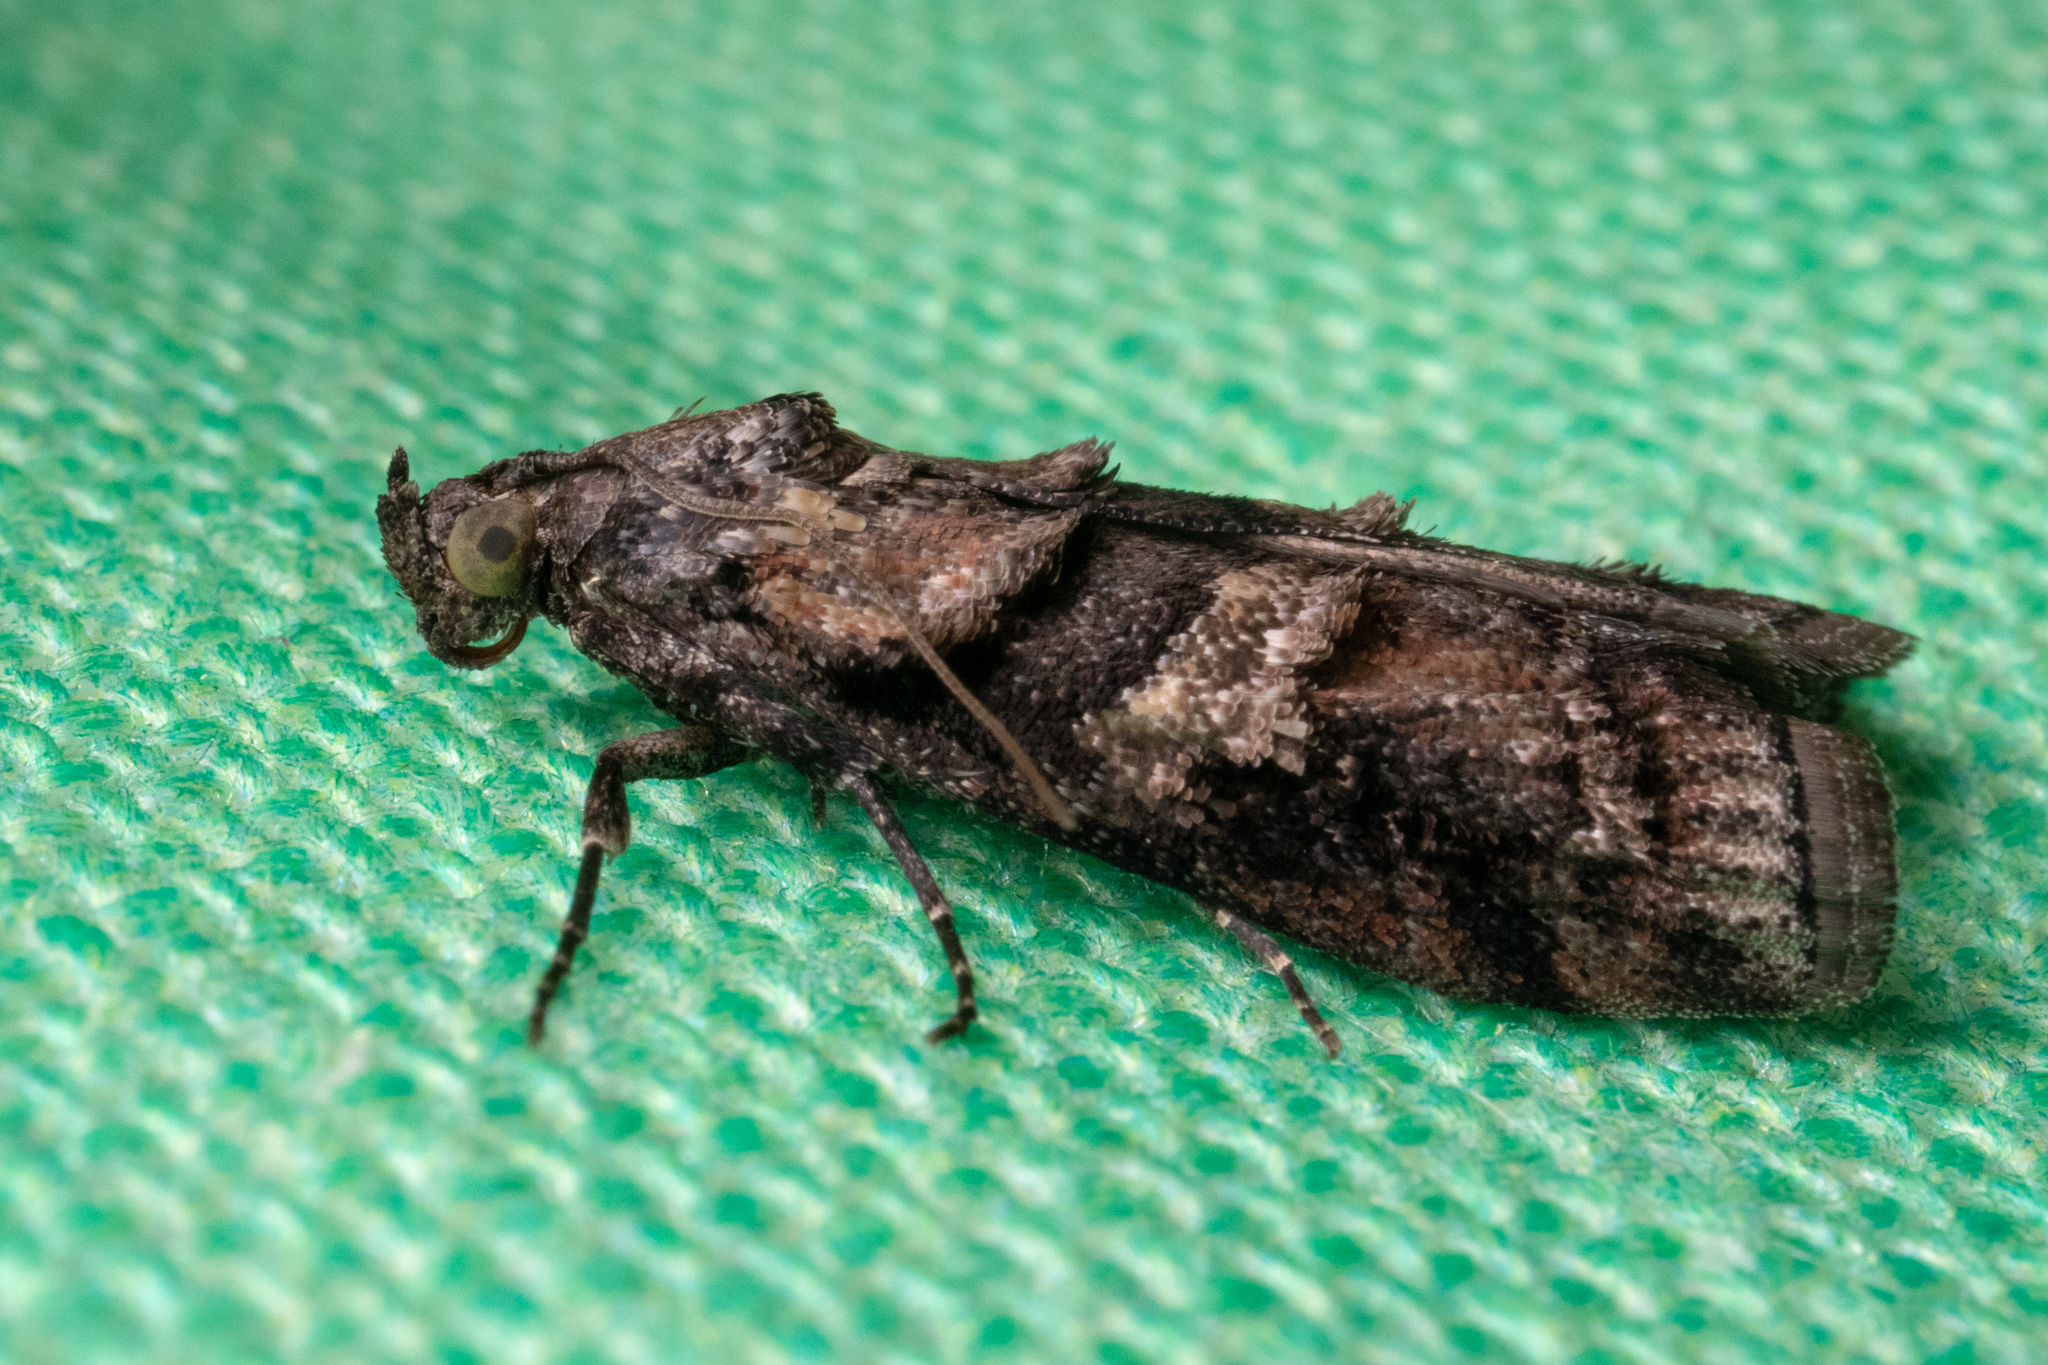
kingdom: Animalia
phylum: Arthropoda
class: Insecta
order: Lepidoptera
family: Pyralidae
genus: Dioryctria
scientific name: Dioryctria clarioralis
